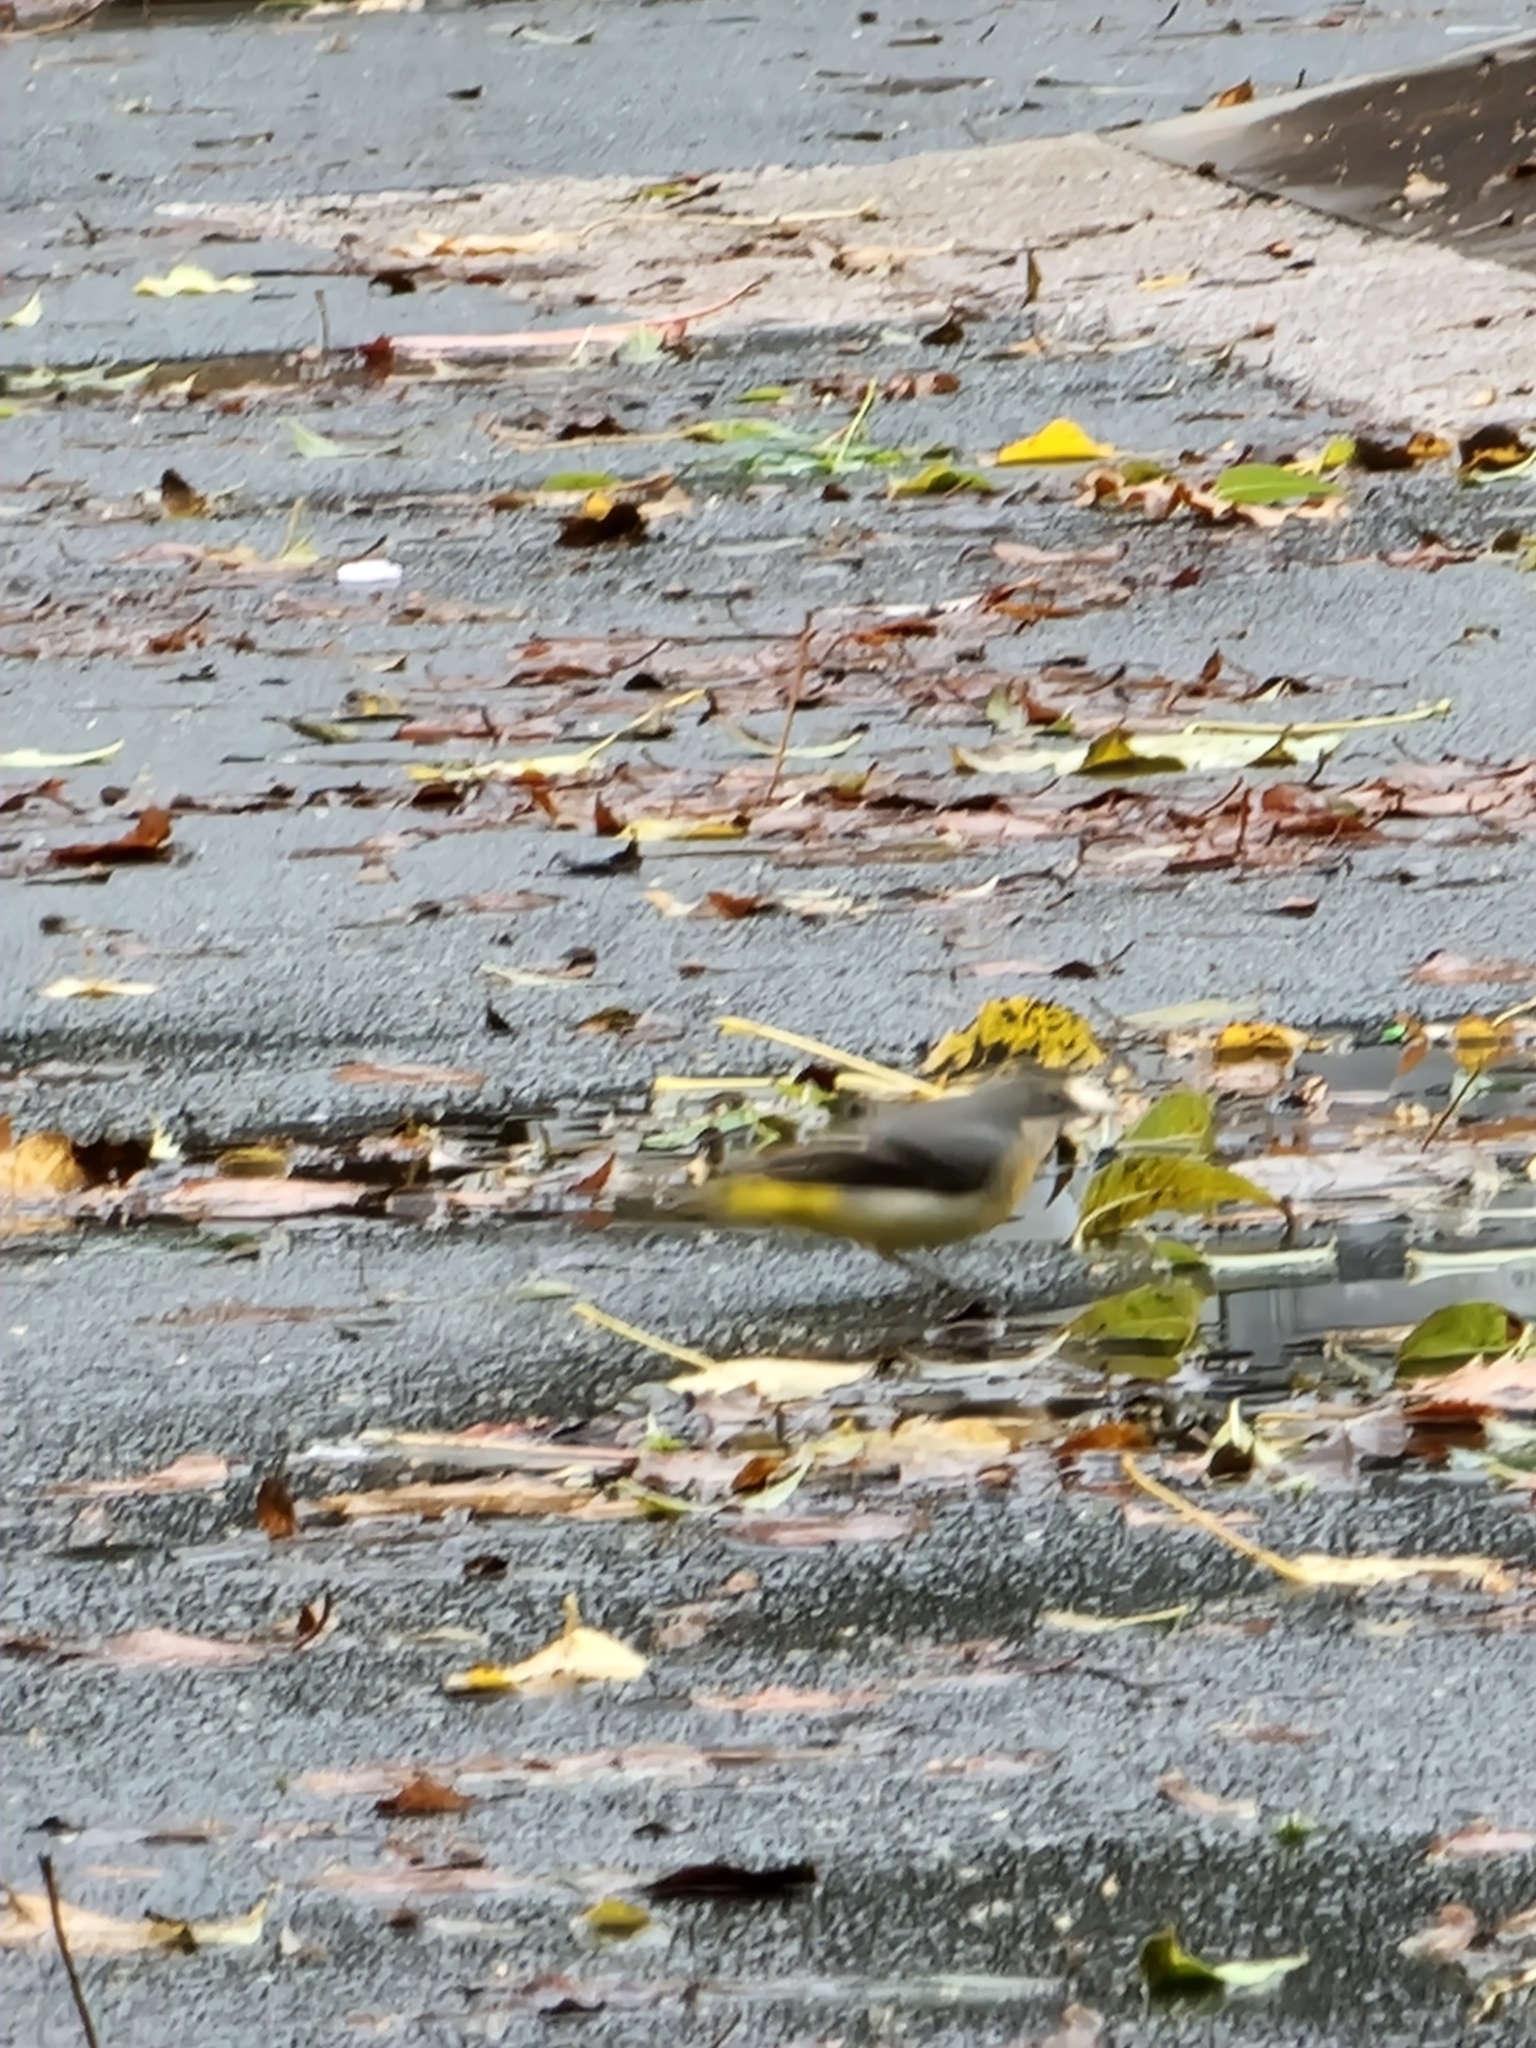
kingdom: Animalia
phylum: Chordata
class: Aves
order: Passeriformes
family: Motacillidae
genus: Motacilla
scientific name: Motacilla cinerea
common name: Grey wagtail
